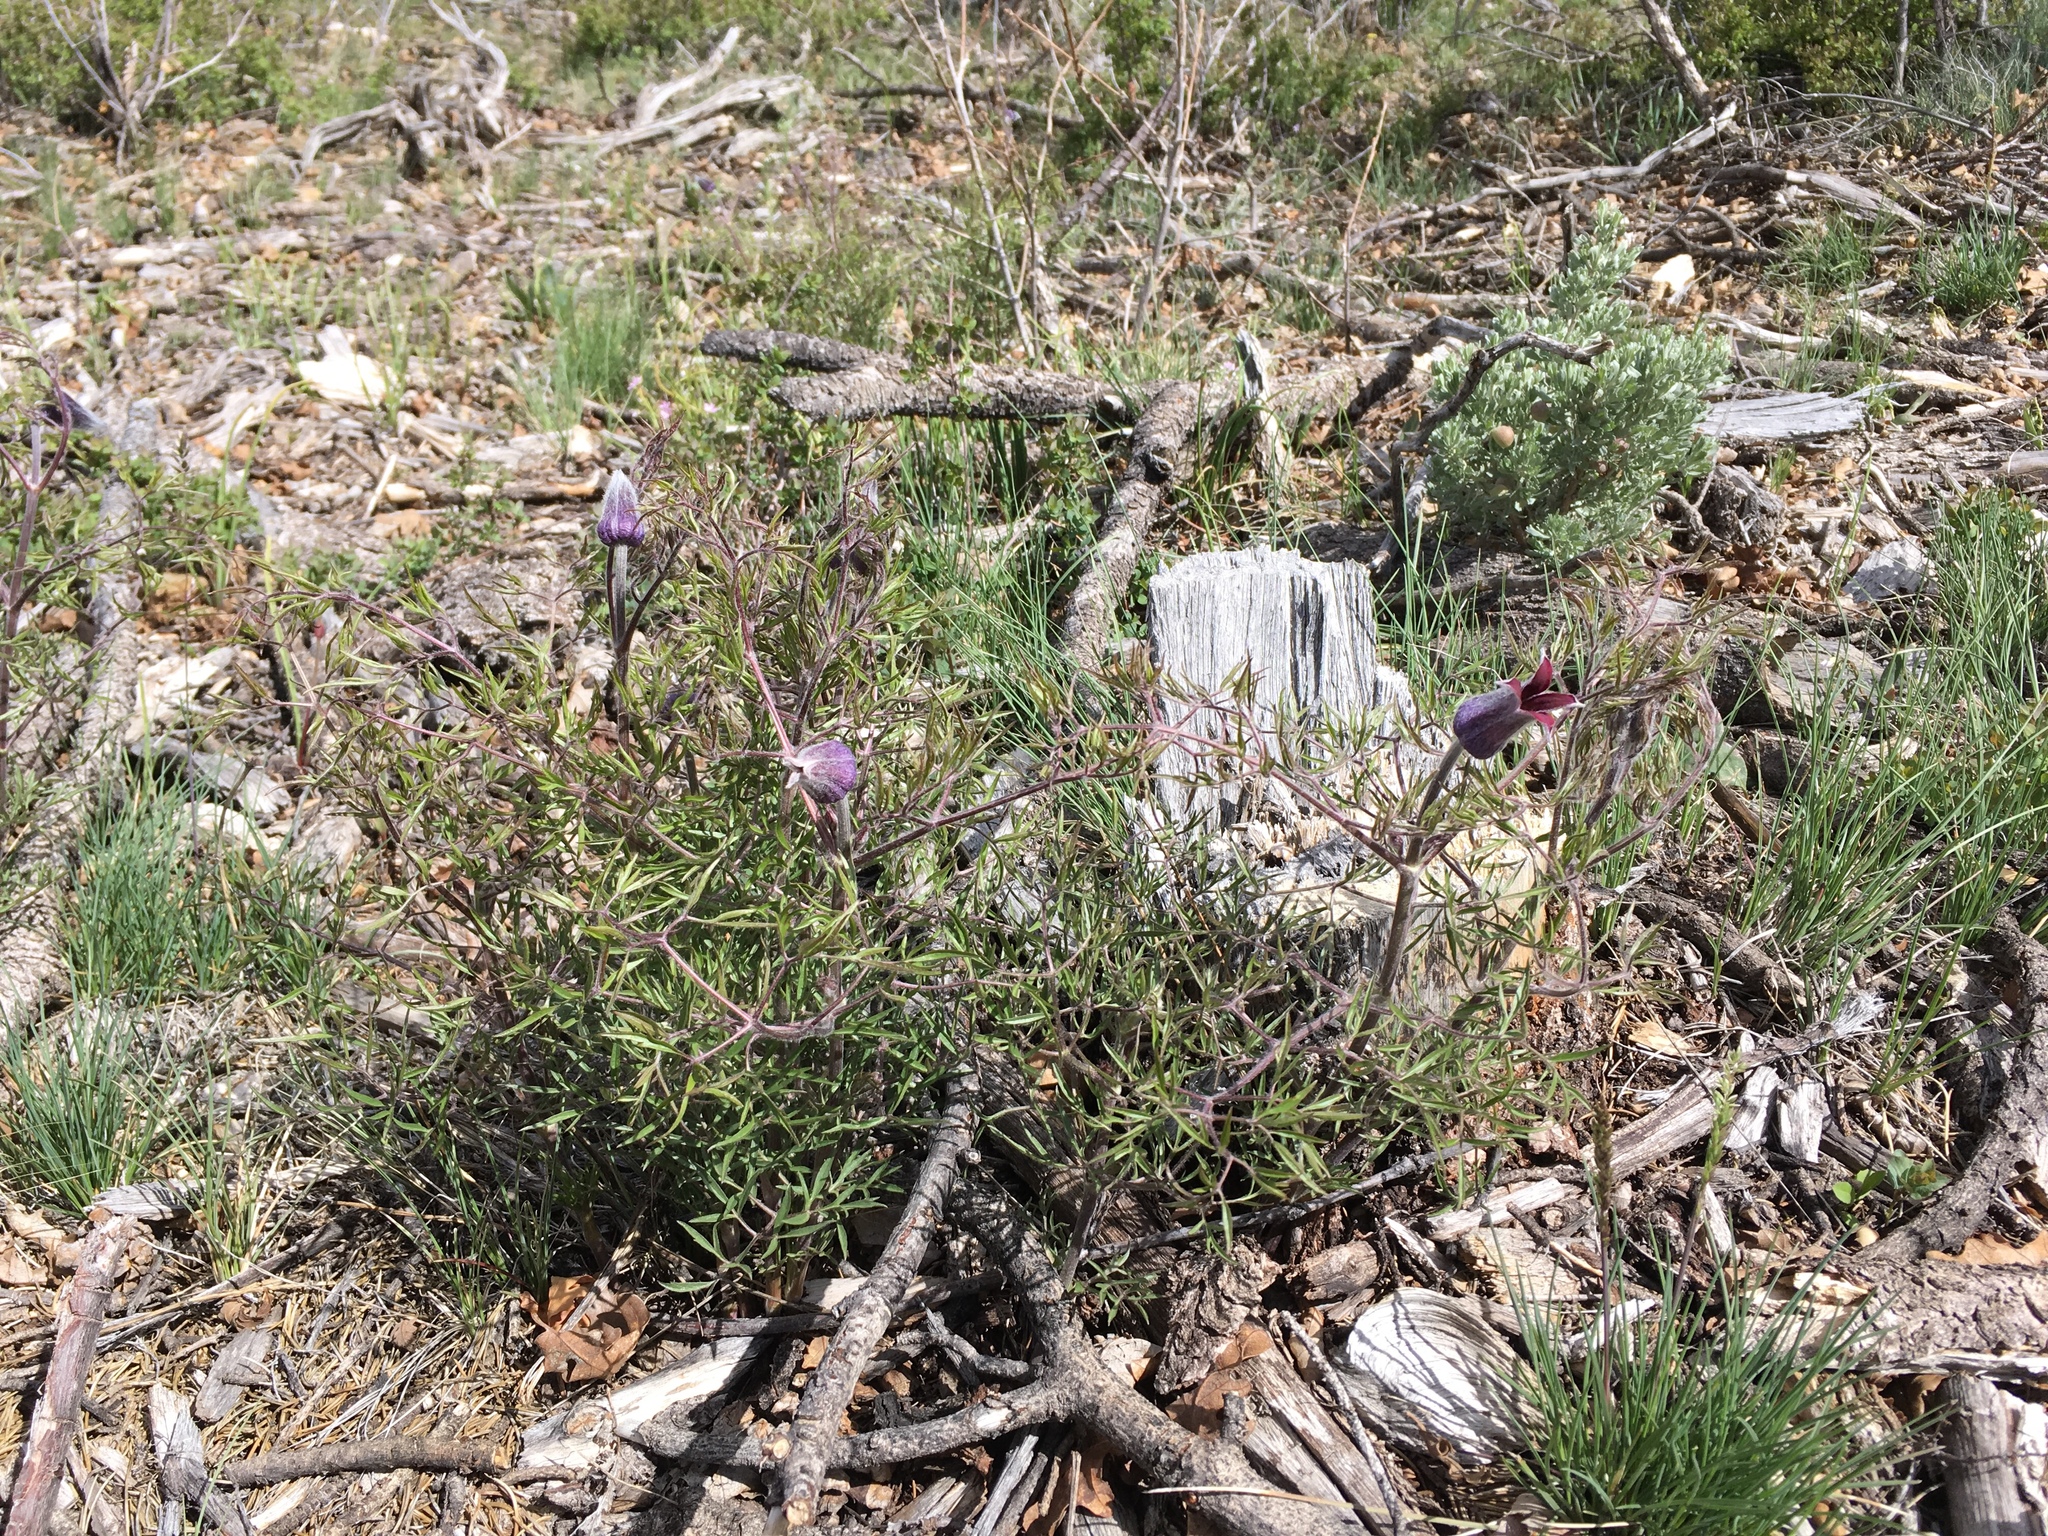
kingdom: Plantae
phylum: Tracheophyta
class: Magnoliopsida
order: Ranunculales
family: Ranunculaceae
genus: Clematis
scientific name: Clematis hirsutissima
